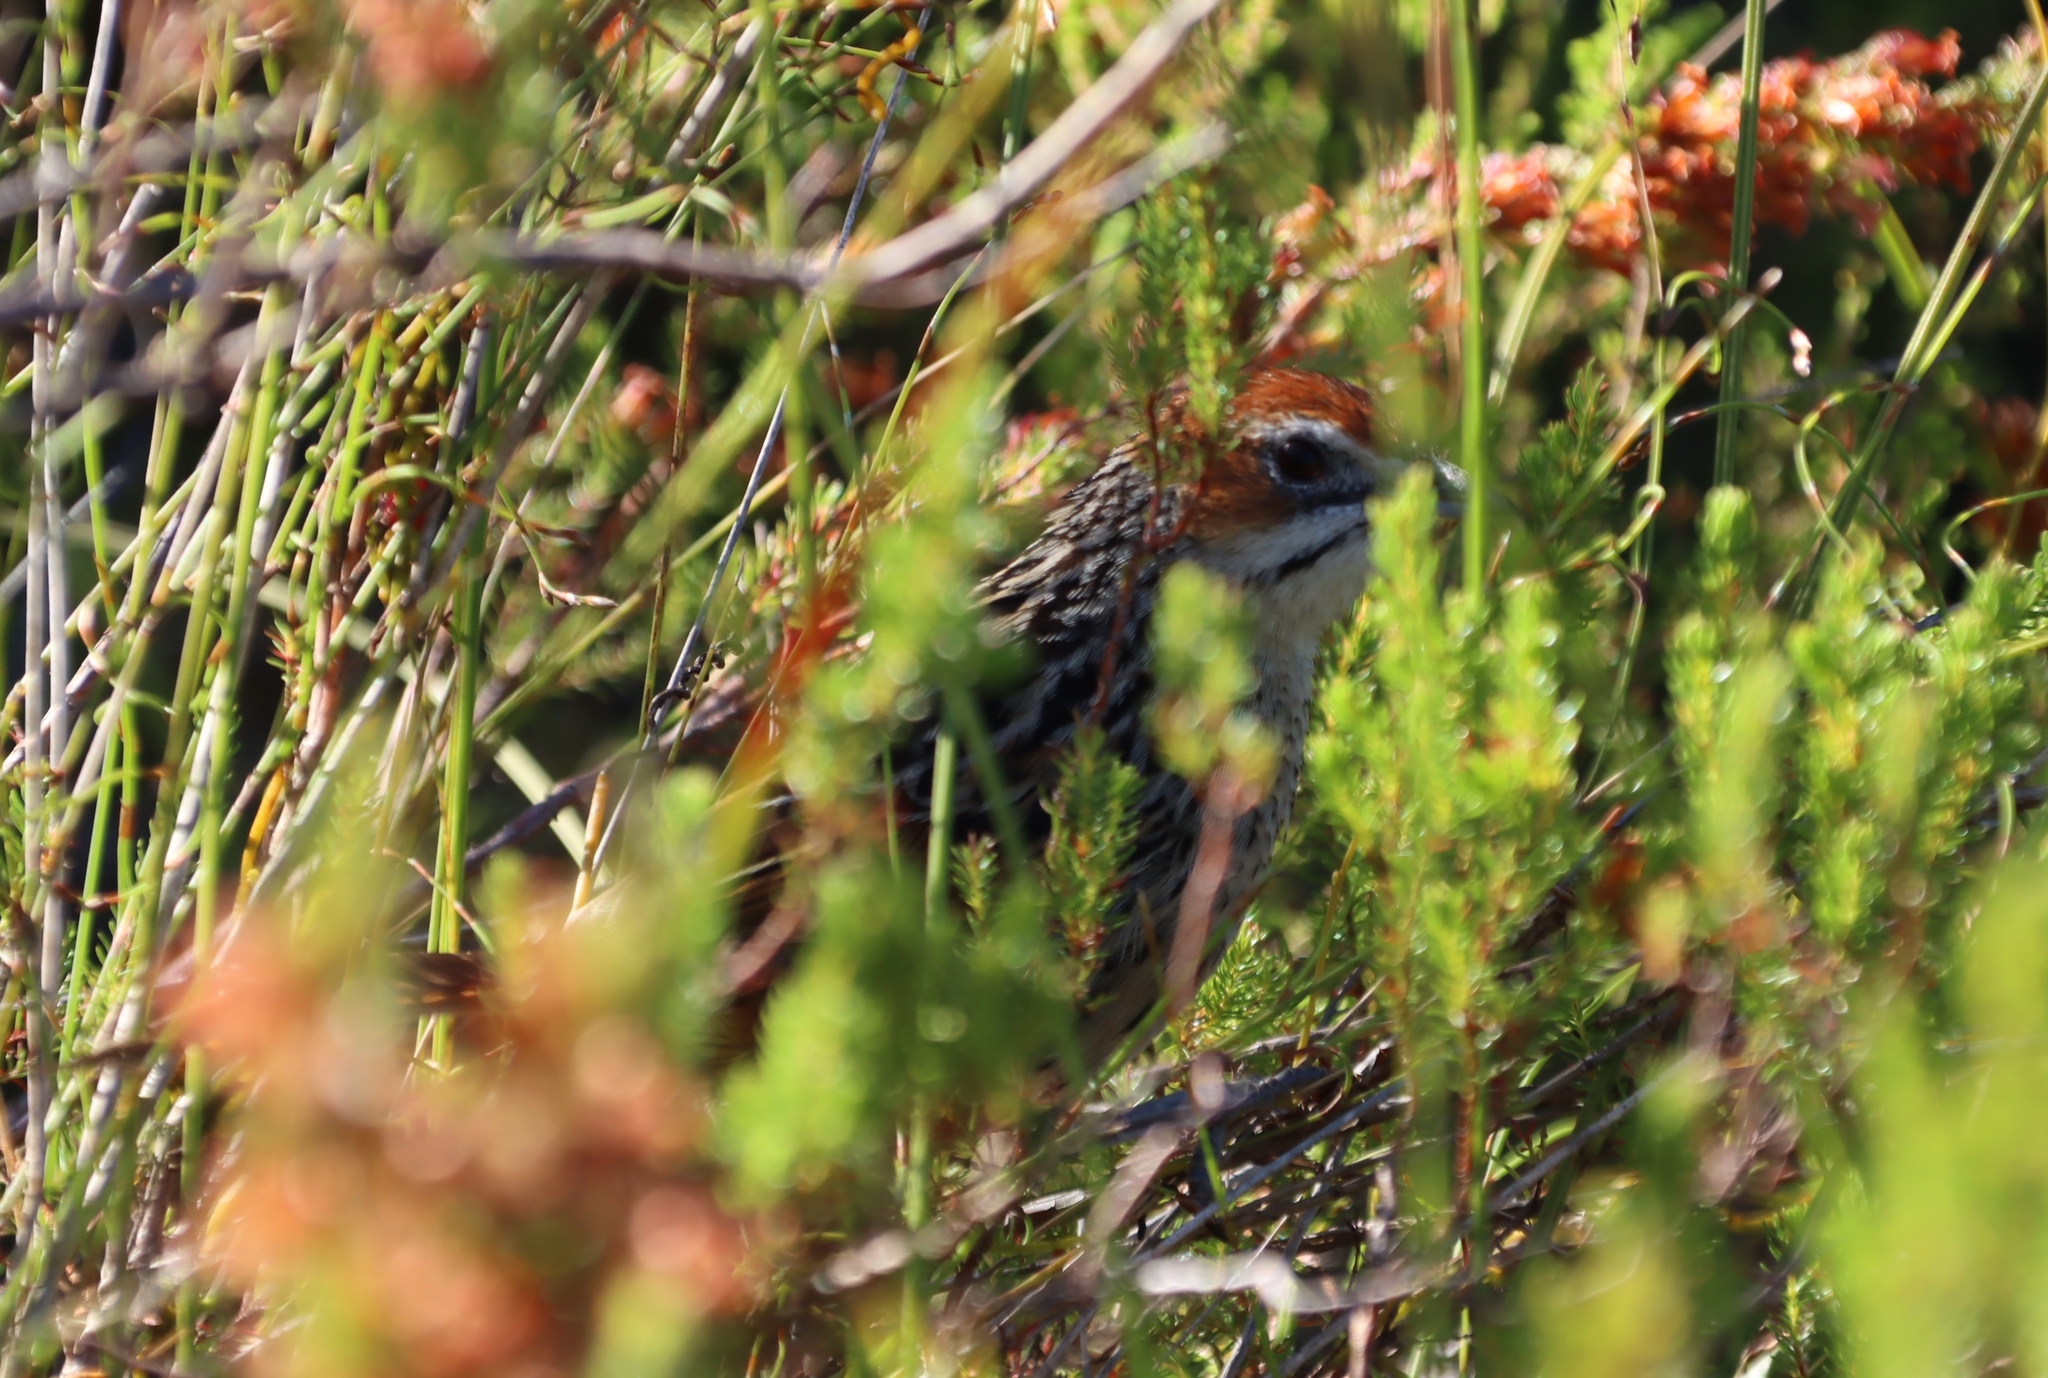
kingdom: Animalia
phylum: Chordata
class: Aves
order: Passeriformes
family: Macrosphenidae
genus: Sphenoeacus
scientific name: Sphenoeacus afer
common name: Cape grassbird
